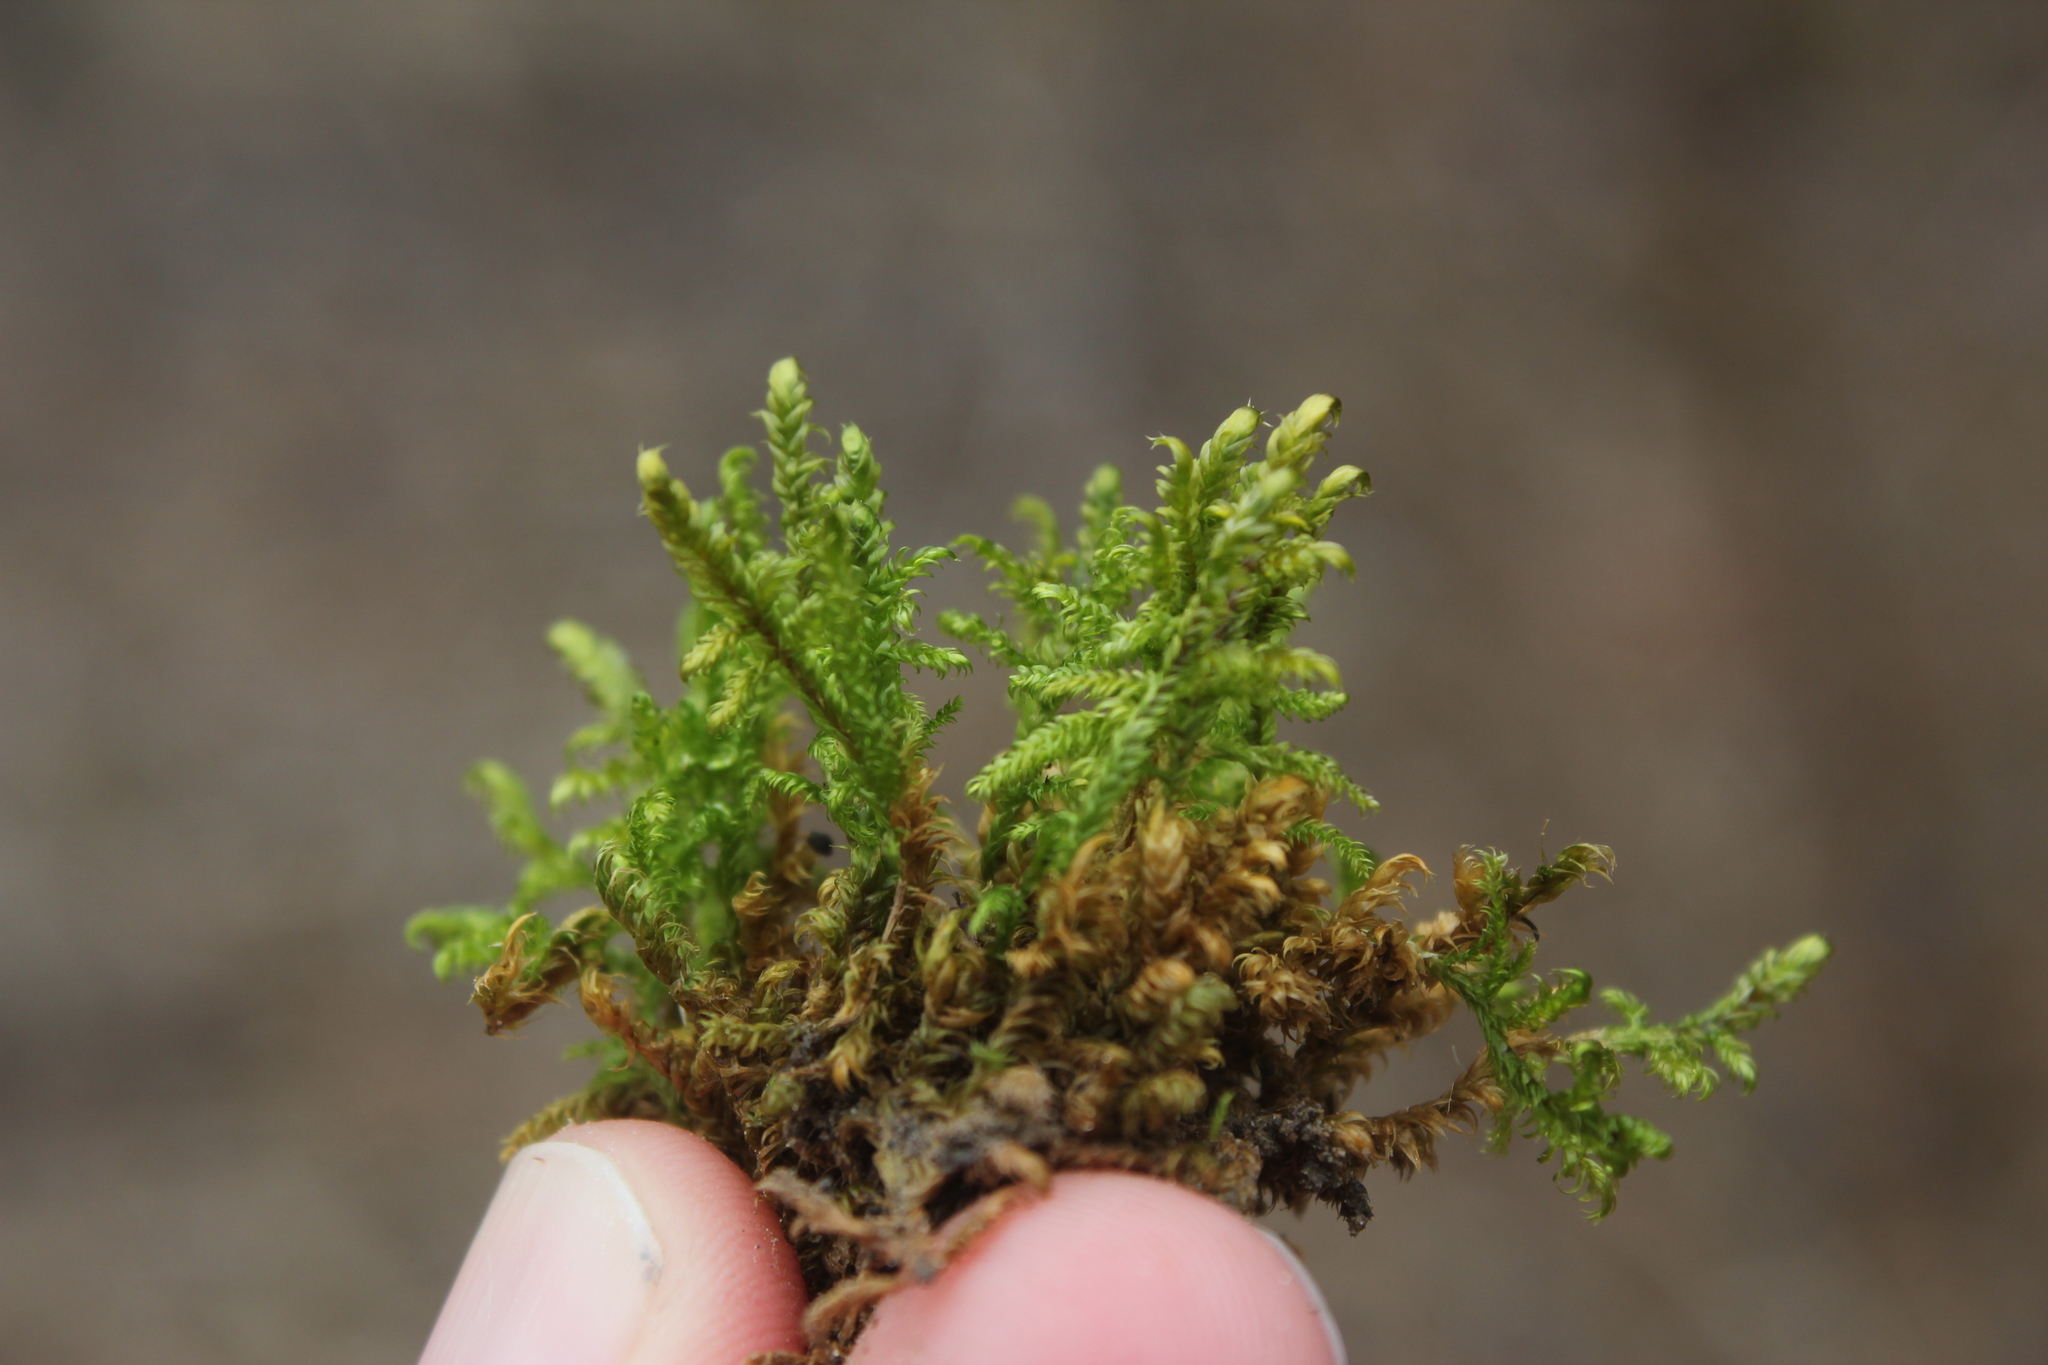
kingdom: Plantae
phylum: Bryophyta
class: Bryopsida
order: Hypnales
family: Pylaisiaceae
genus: Calliergonella
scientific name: Calliergonella lindbergii
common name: Lindberg's plait-moss
